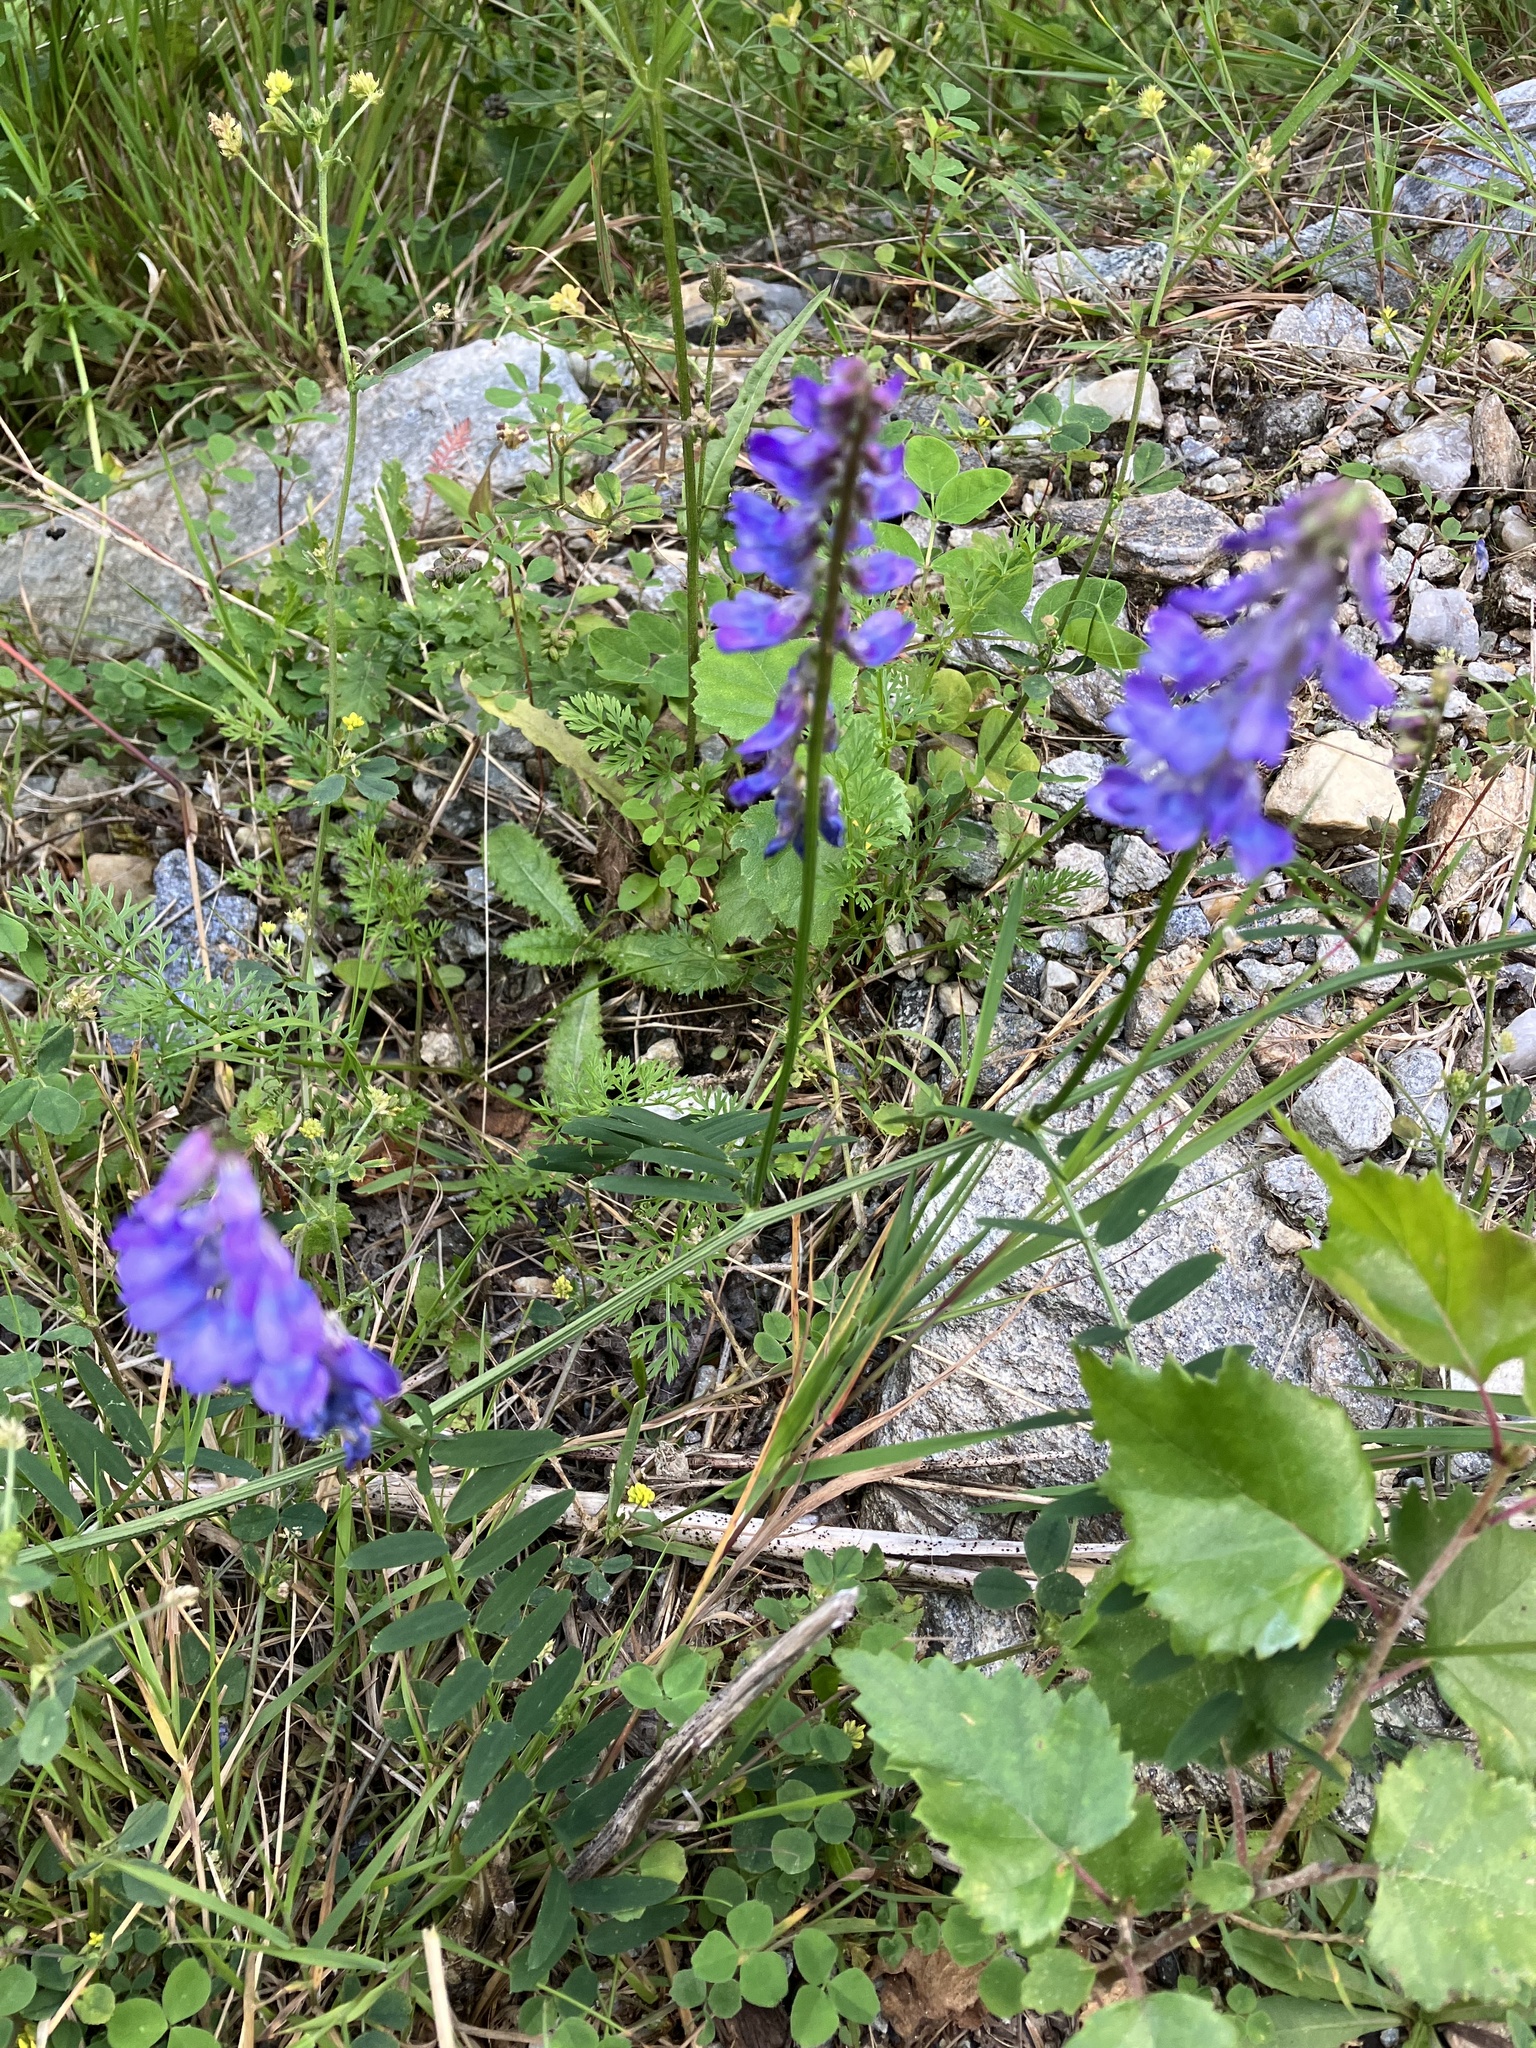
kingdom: Plantae
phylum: Tracheophyta
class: Magnoliopsida
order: Fabales
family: Fabaceae
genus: Vicia
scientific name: Vicia cracca
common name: Bird vetch
